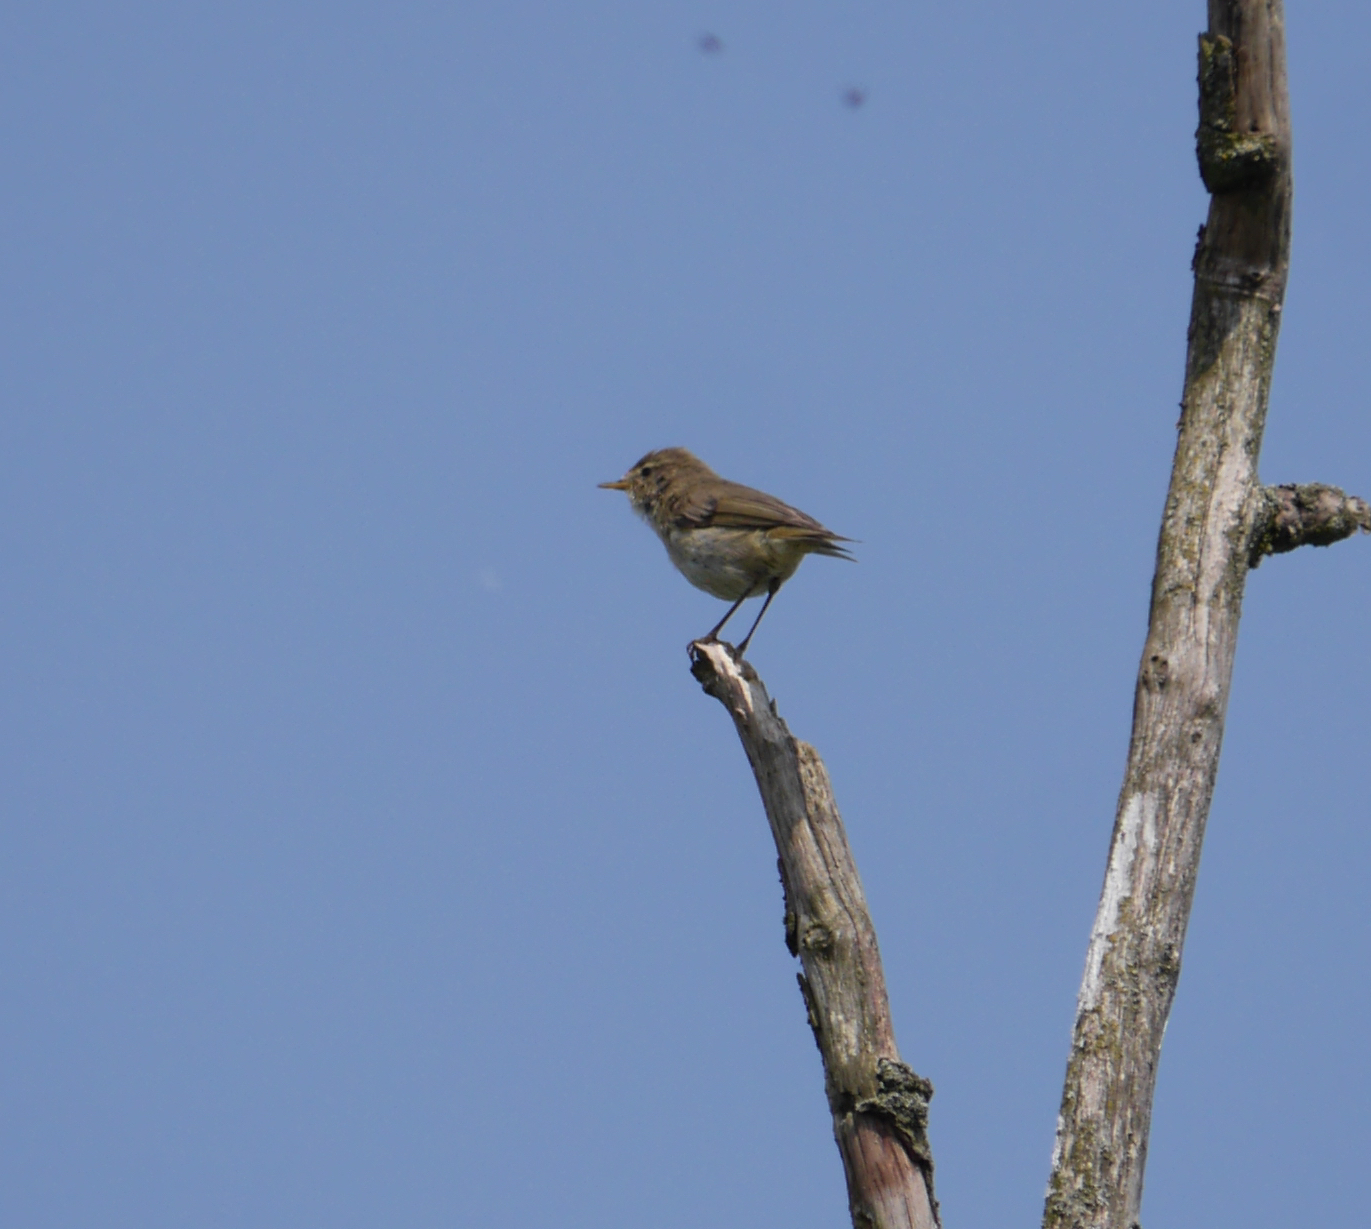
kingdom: Animalia
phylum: Chordata
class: Aves
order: Passeriformes
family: Phylloscopidae
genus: Phylloscopus
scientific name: Phylloscopus collybita
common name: Common chiffchaff
